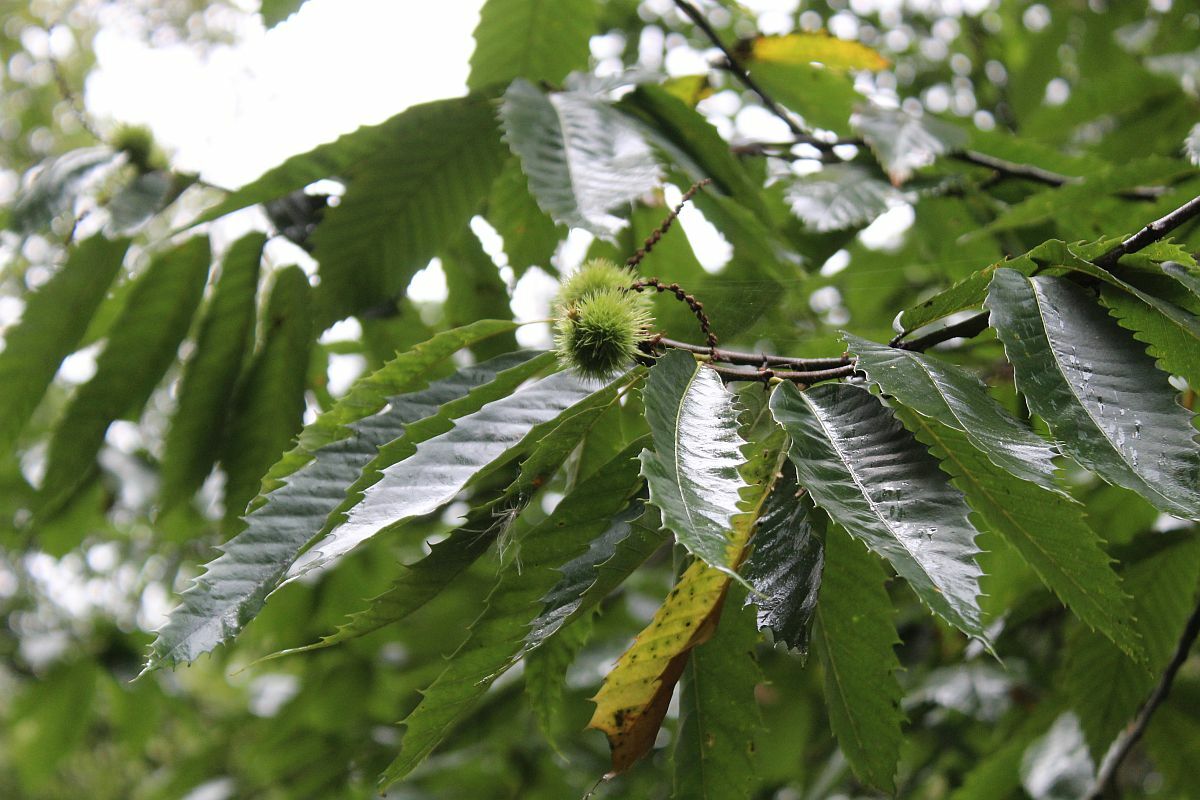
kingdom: Plantae
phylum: Tracheophyta
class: Magnoliopsida
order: Fagales
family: Fagaceae
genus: Castanea
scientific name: Castanea sativa
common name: Sweet chestnut
